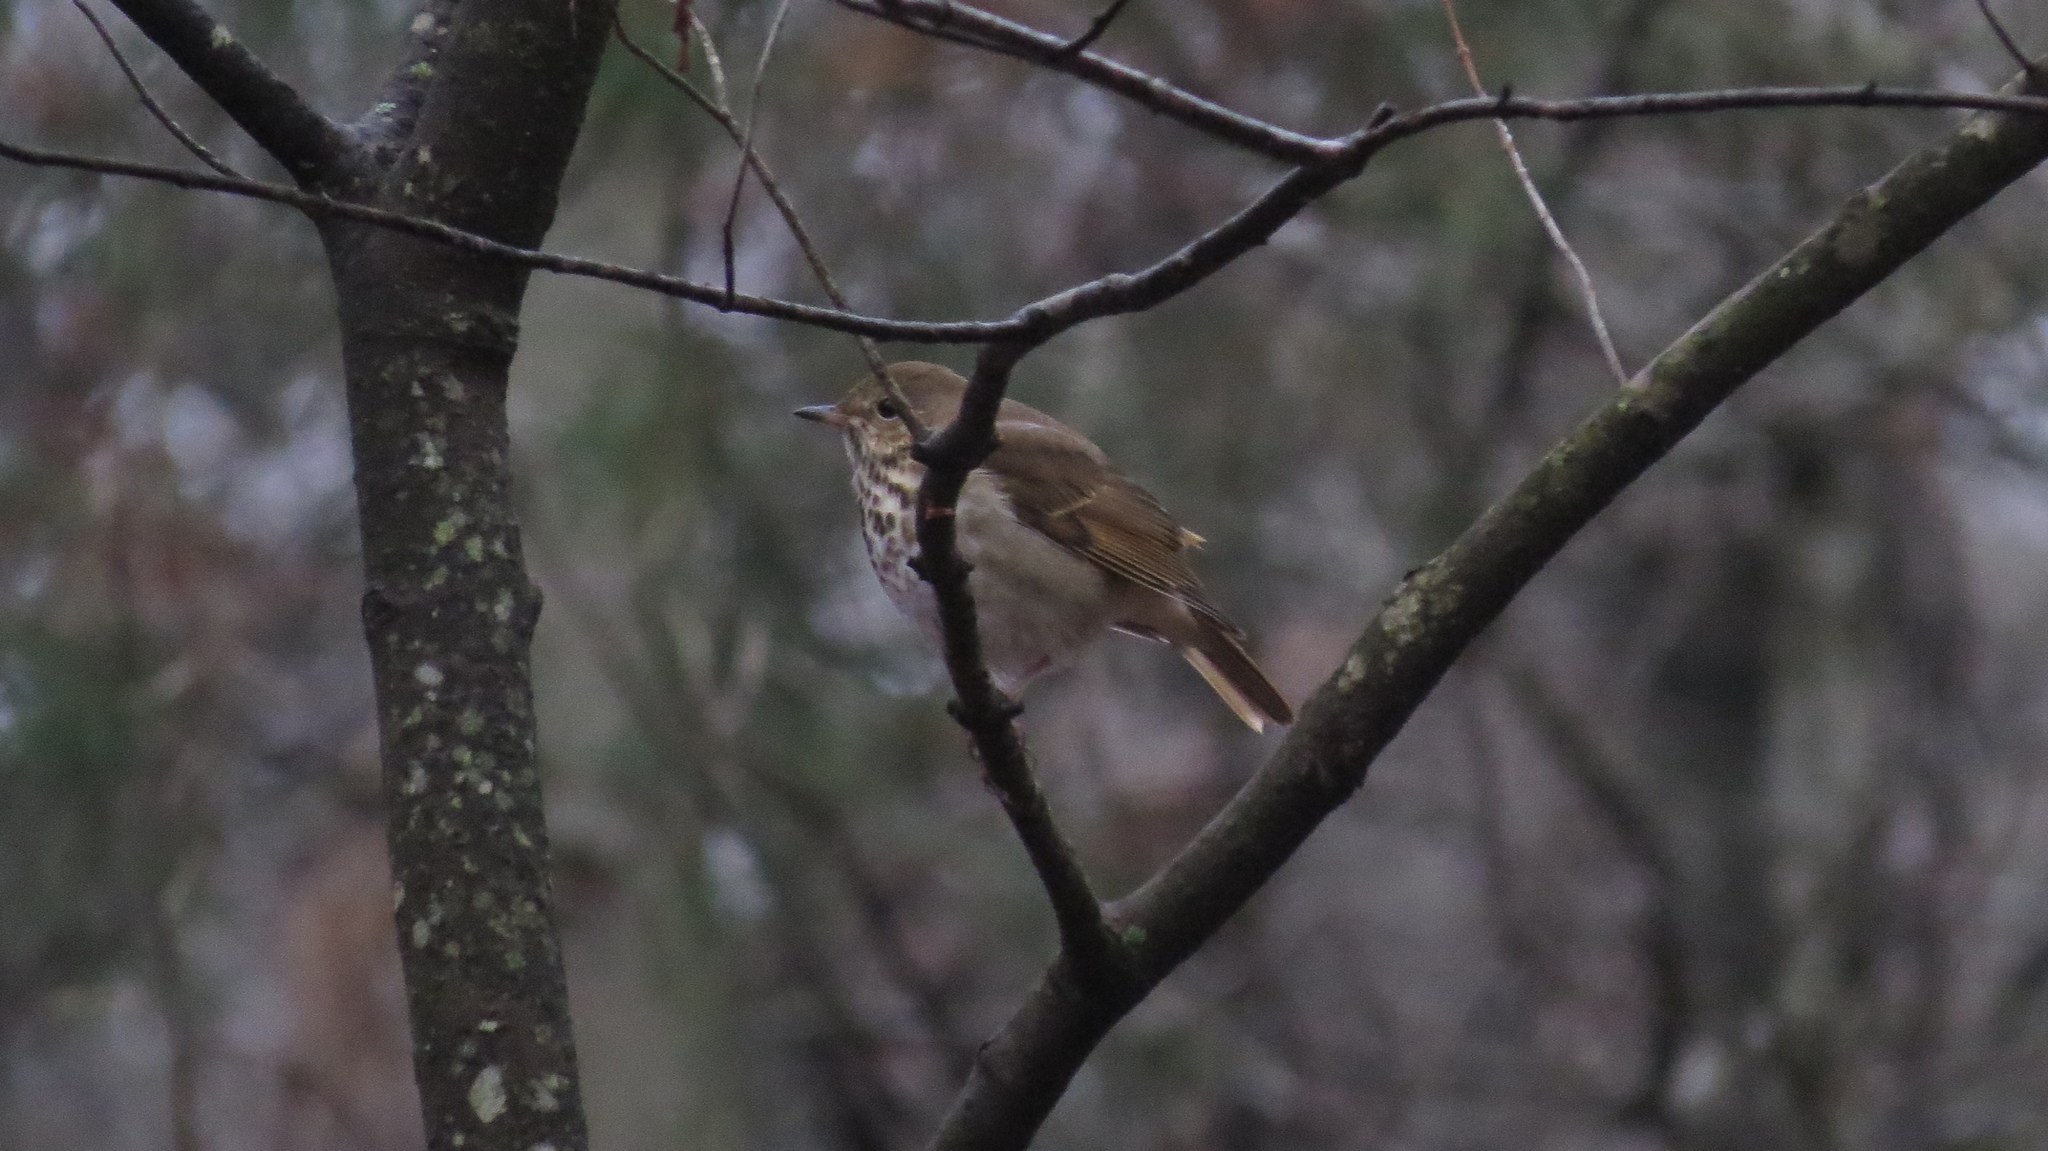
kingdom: Animalia
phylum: Chordata
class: Aves
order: Passeriformes
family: Turdidae
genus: Catharus
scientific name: Catharus guttatus
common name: Hermit thrush
